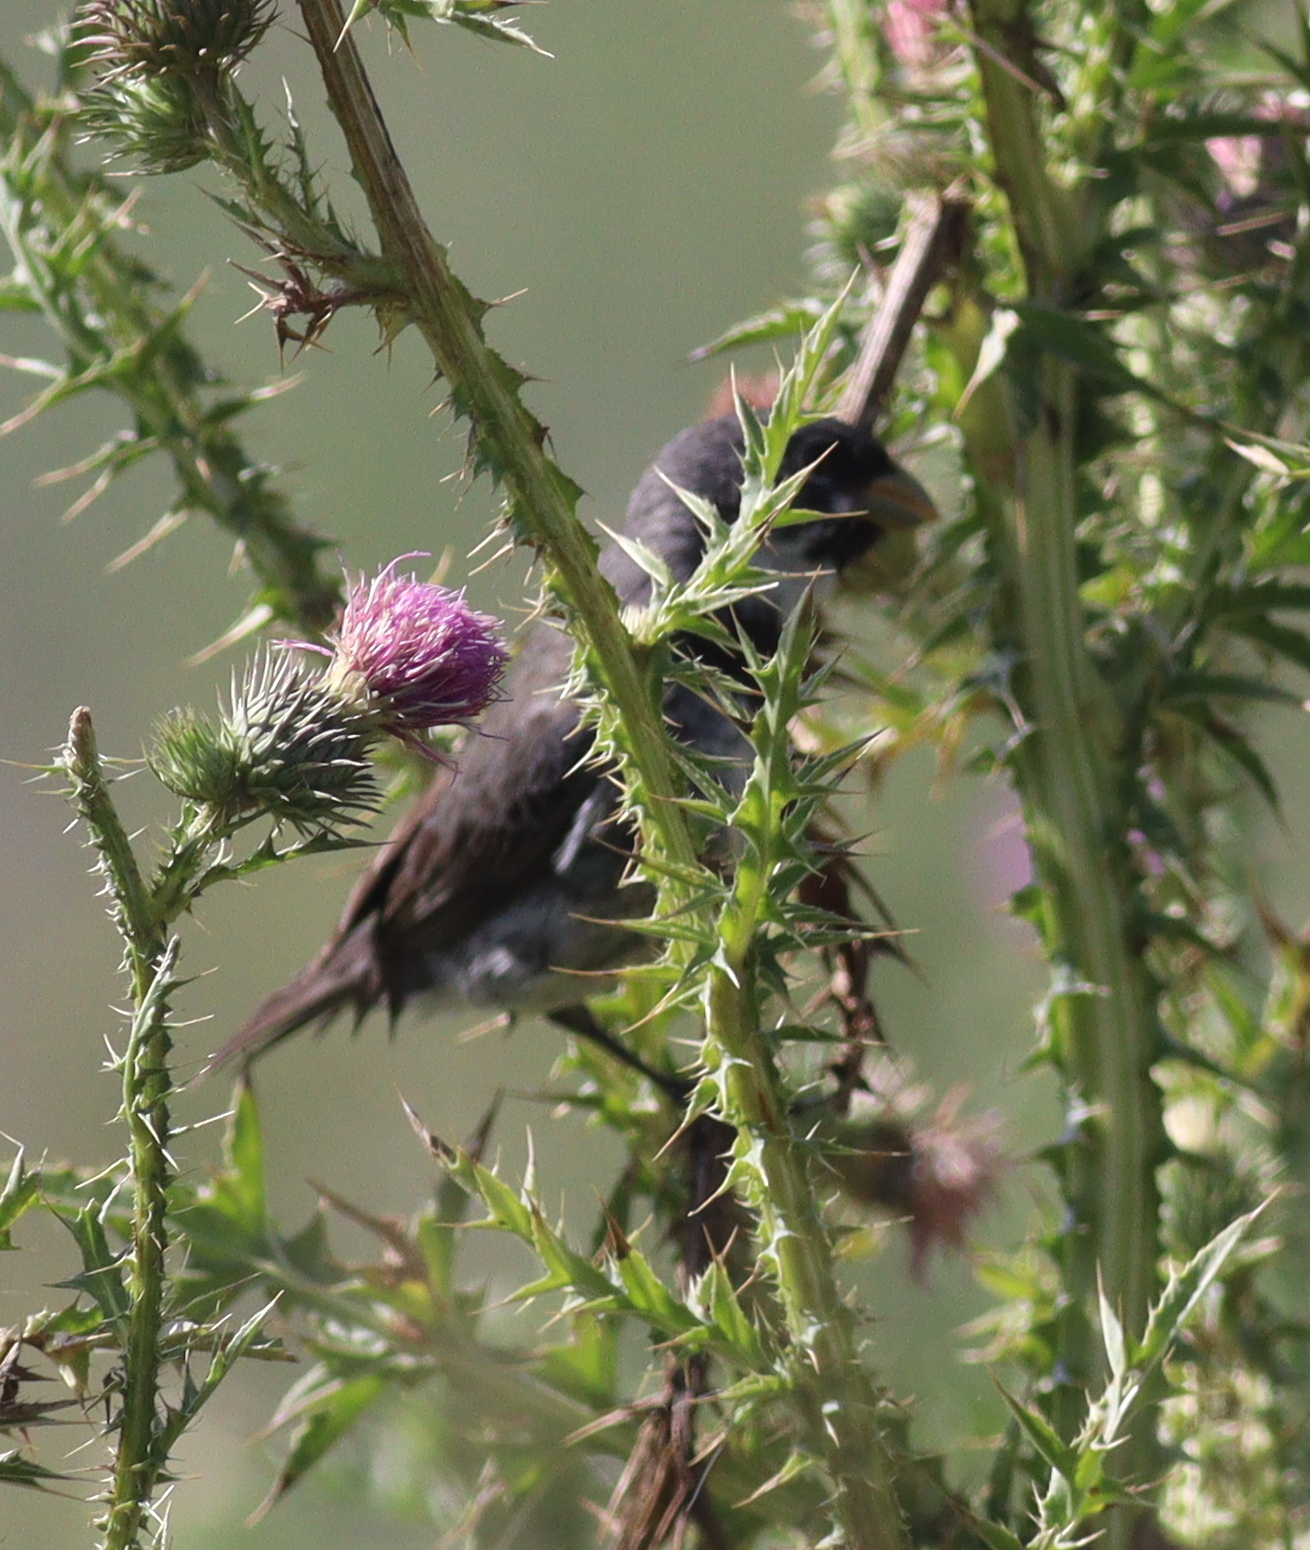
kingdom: Animalia
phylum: Chordata
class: Aves
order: Passeriformes
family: Thraupidae
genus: Sporophila
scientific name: Sporophila caerulescens
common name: Double-collared seedeater
